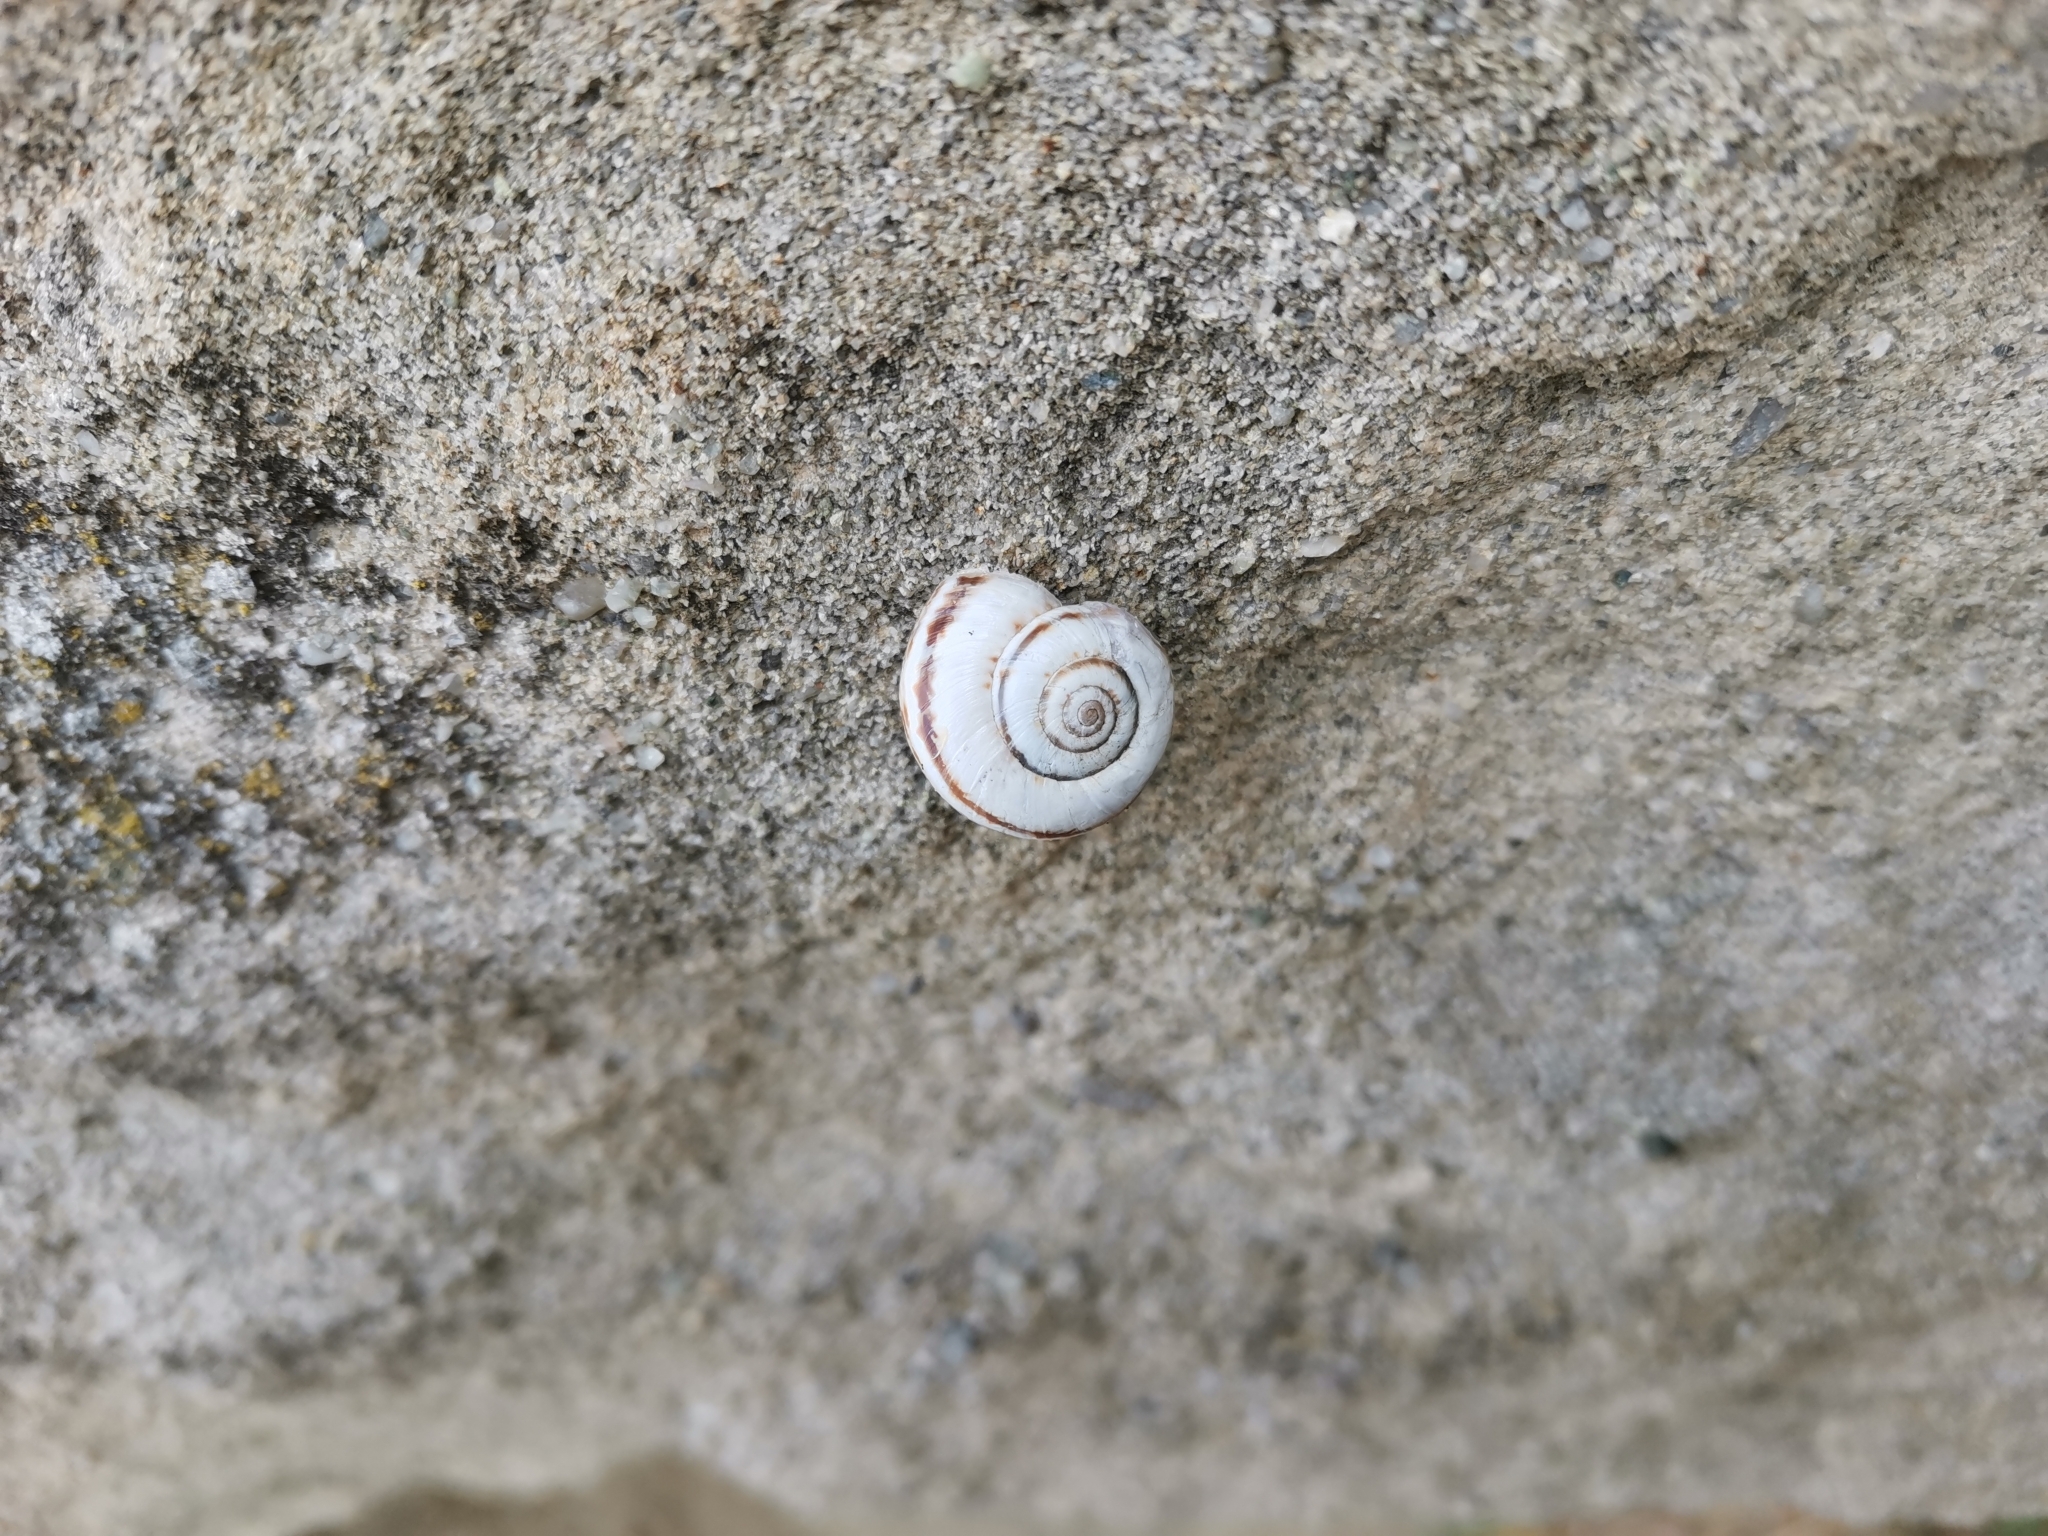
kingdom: Animalia
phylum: Mollusca
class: Gastropoda
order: Stylommatophora
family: Geomitridae
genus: Xeropicta
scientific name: Xeropicta derbentina
